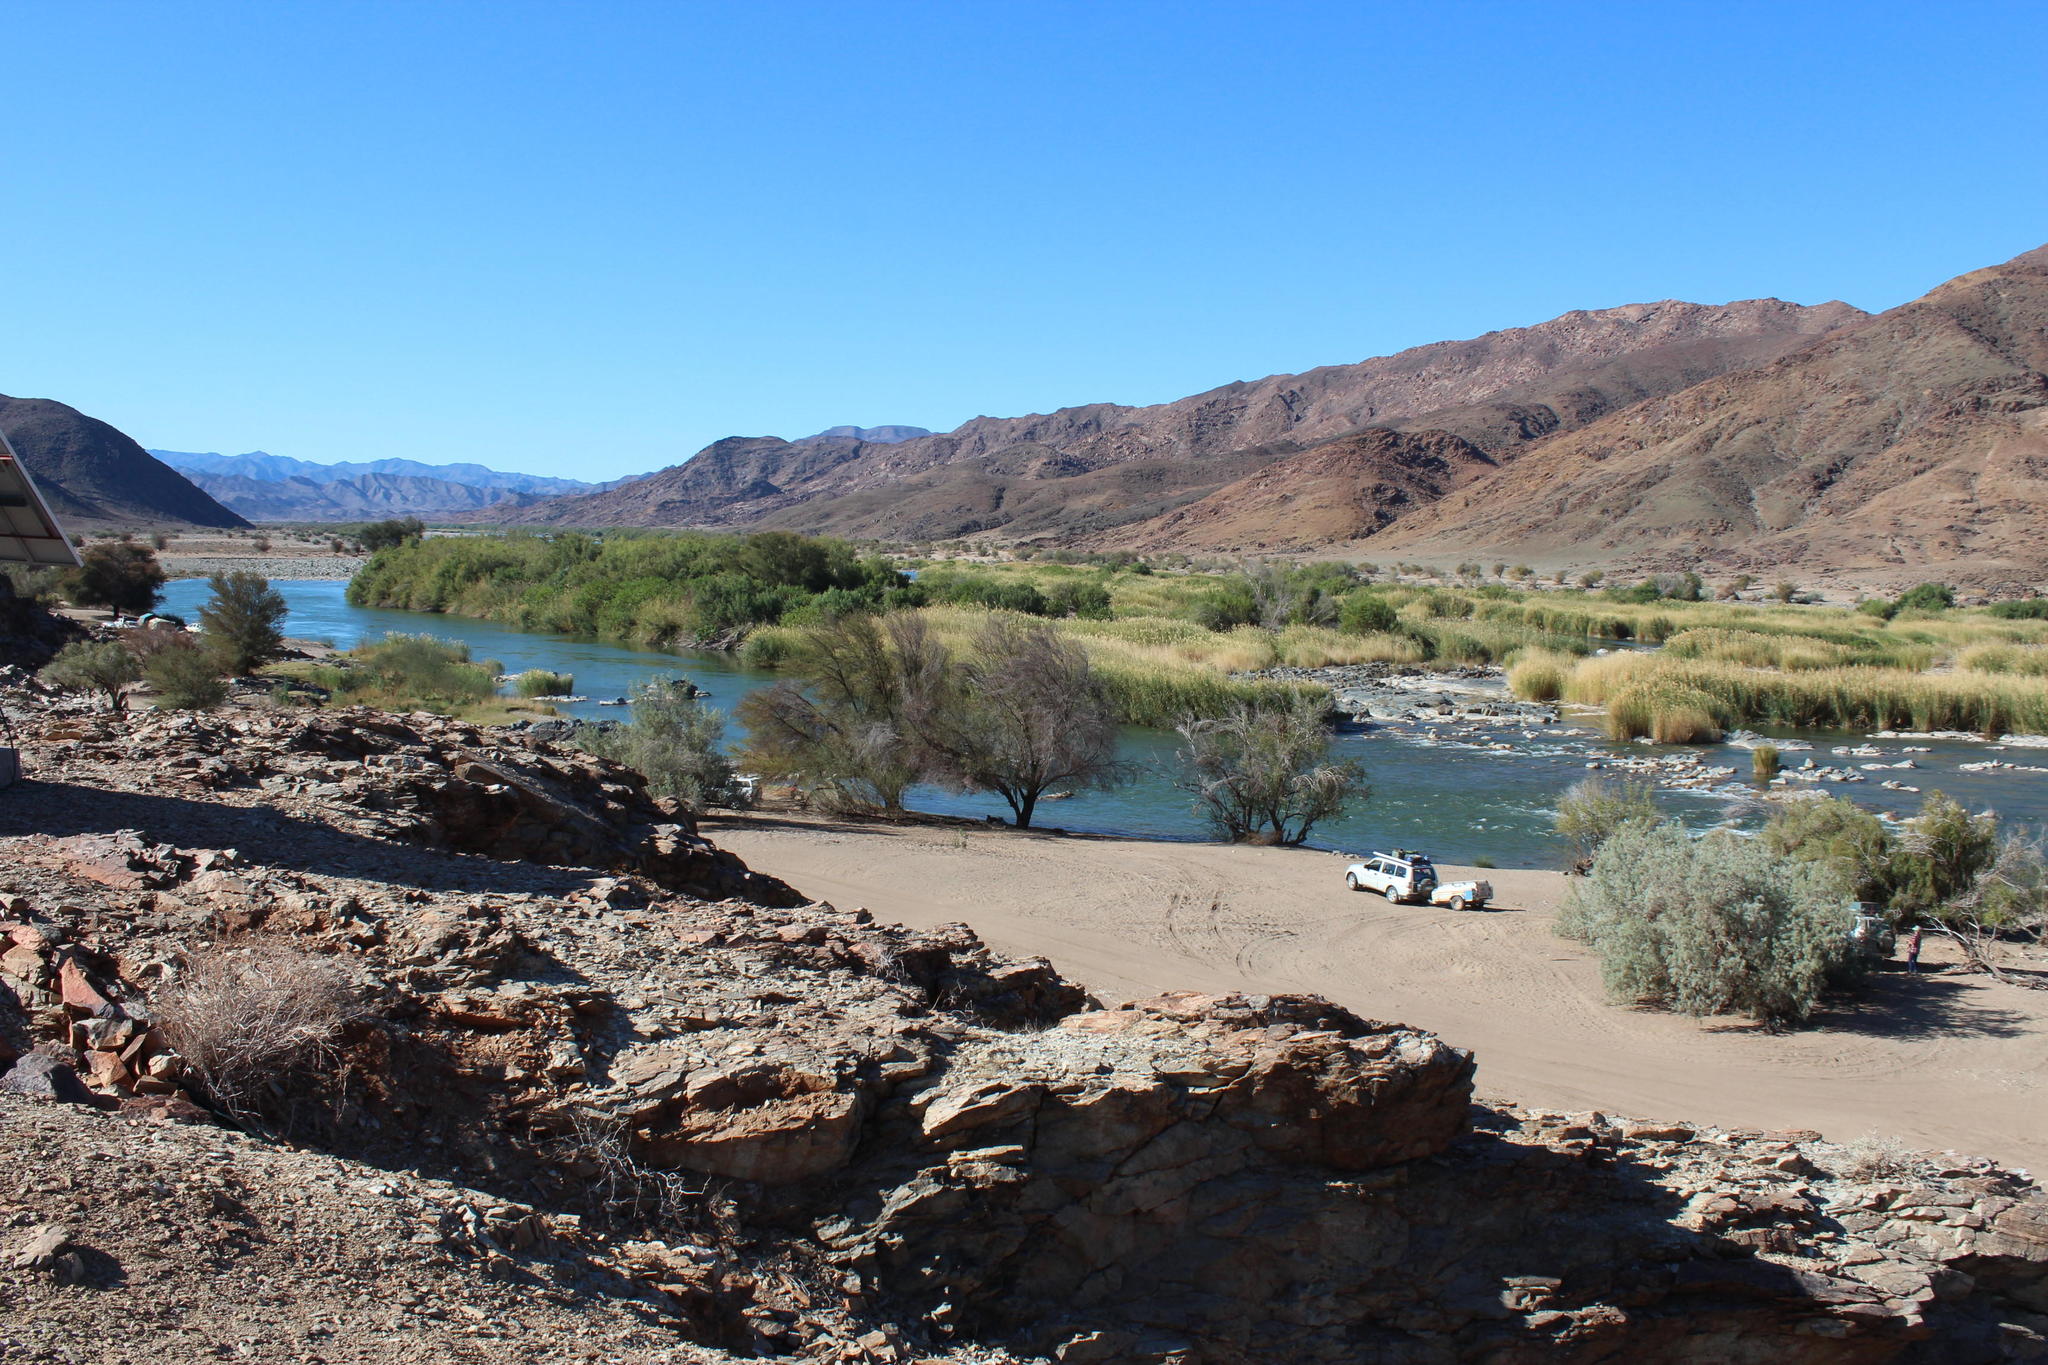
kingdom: Plantae
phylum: Tracheophyta
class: Liliopsida
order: Poales
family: Poaceae
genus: Phragmites
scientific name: Phragmites australis
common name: Common reed
